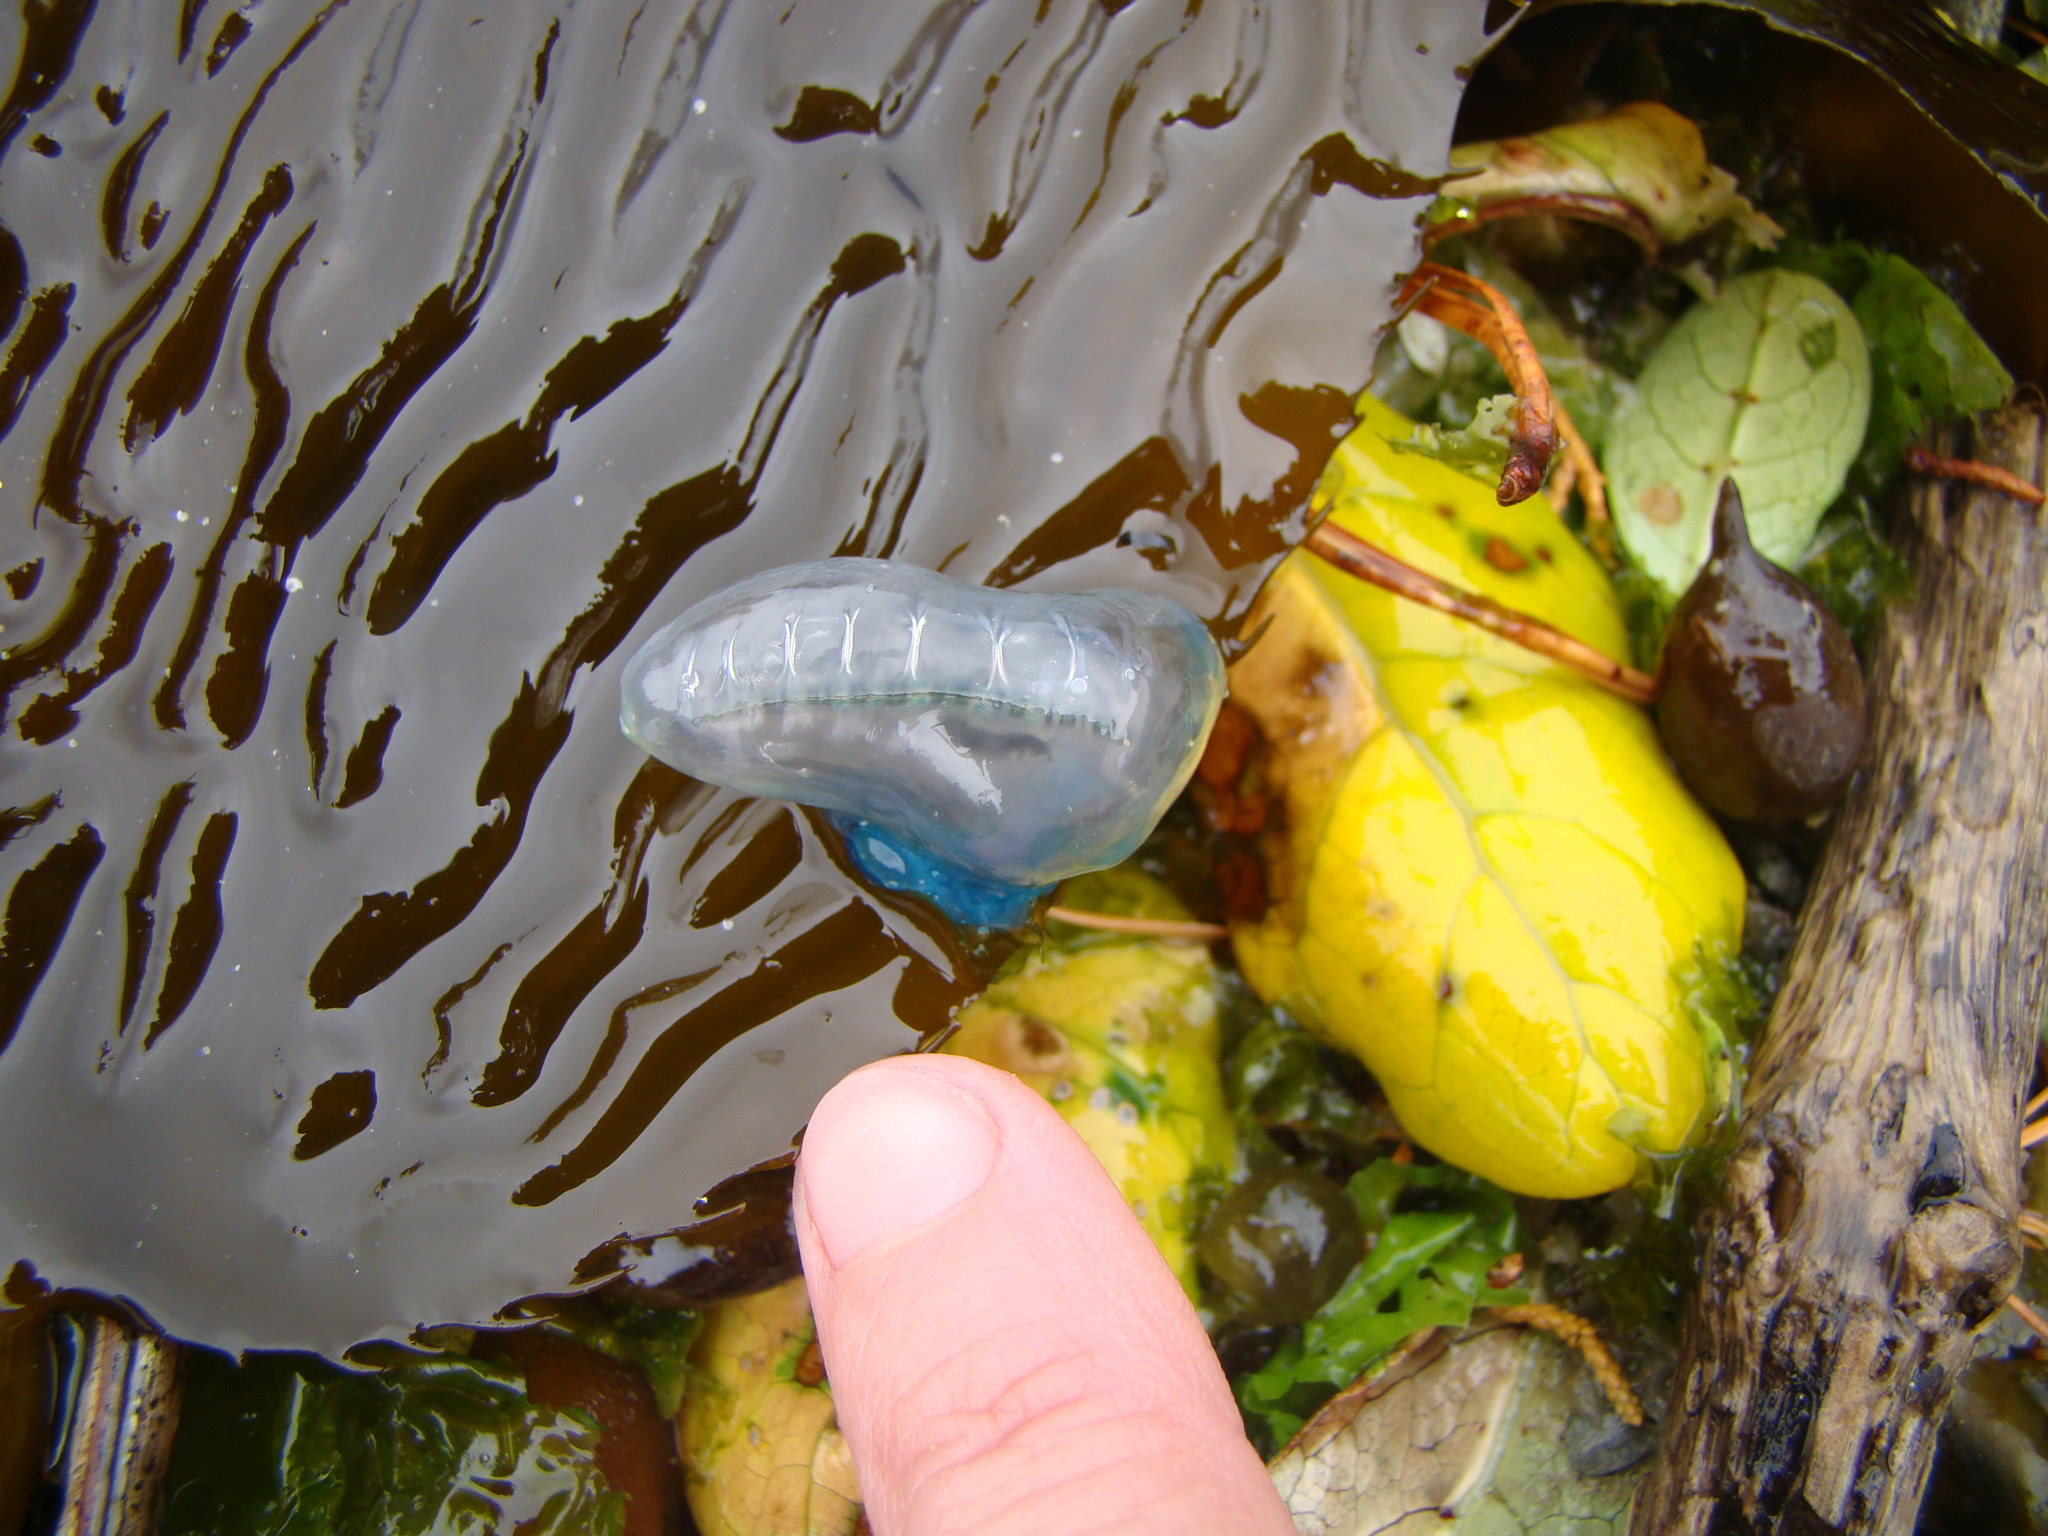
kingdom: Animalia
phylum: Cnidaria
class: Hydrozoa
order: Siphonophorae
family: Physaliidae
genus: Physalia
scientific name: Physalia physalis
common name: Portuguese man-of-war
